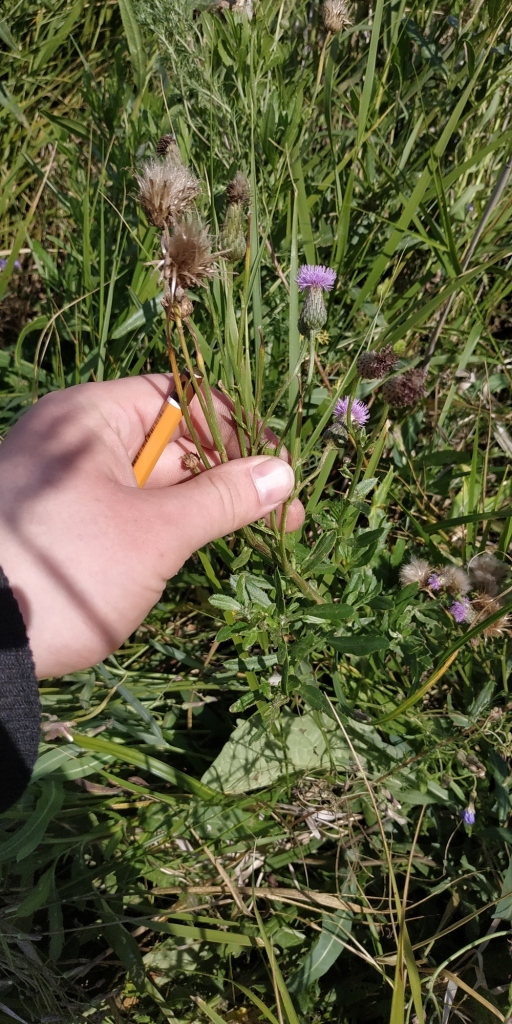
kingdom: Plantae
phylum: Tracheophyta
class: Magnoliopsida
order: Asterales
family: Asteraceae
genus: Cirsium
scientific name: Cirsium arvense
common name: Creeping thistle
